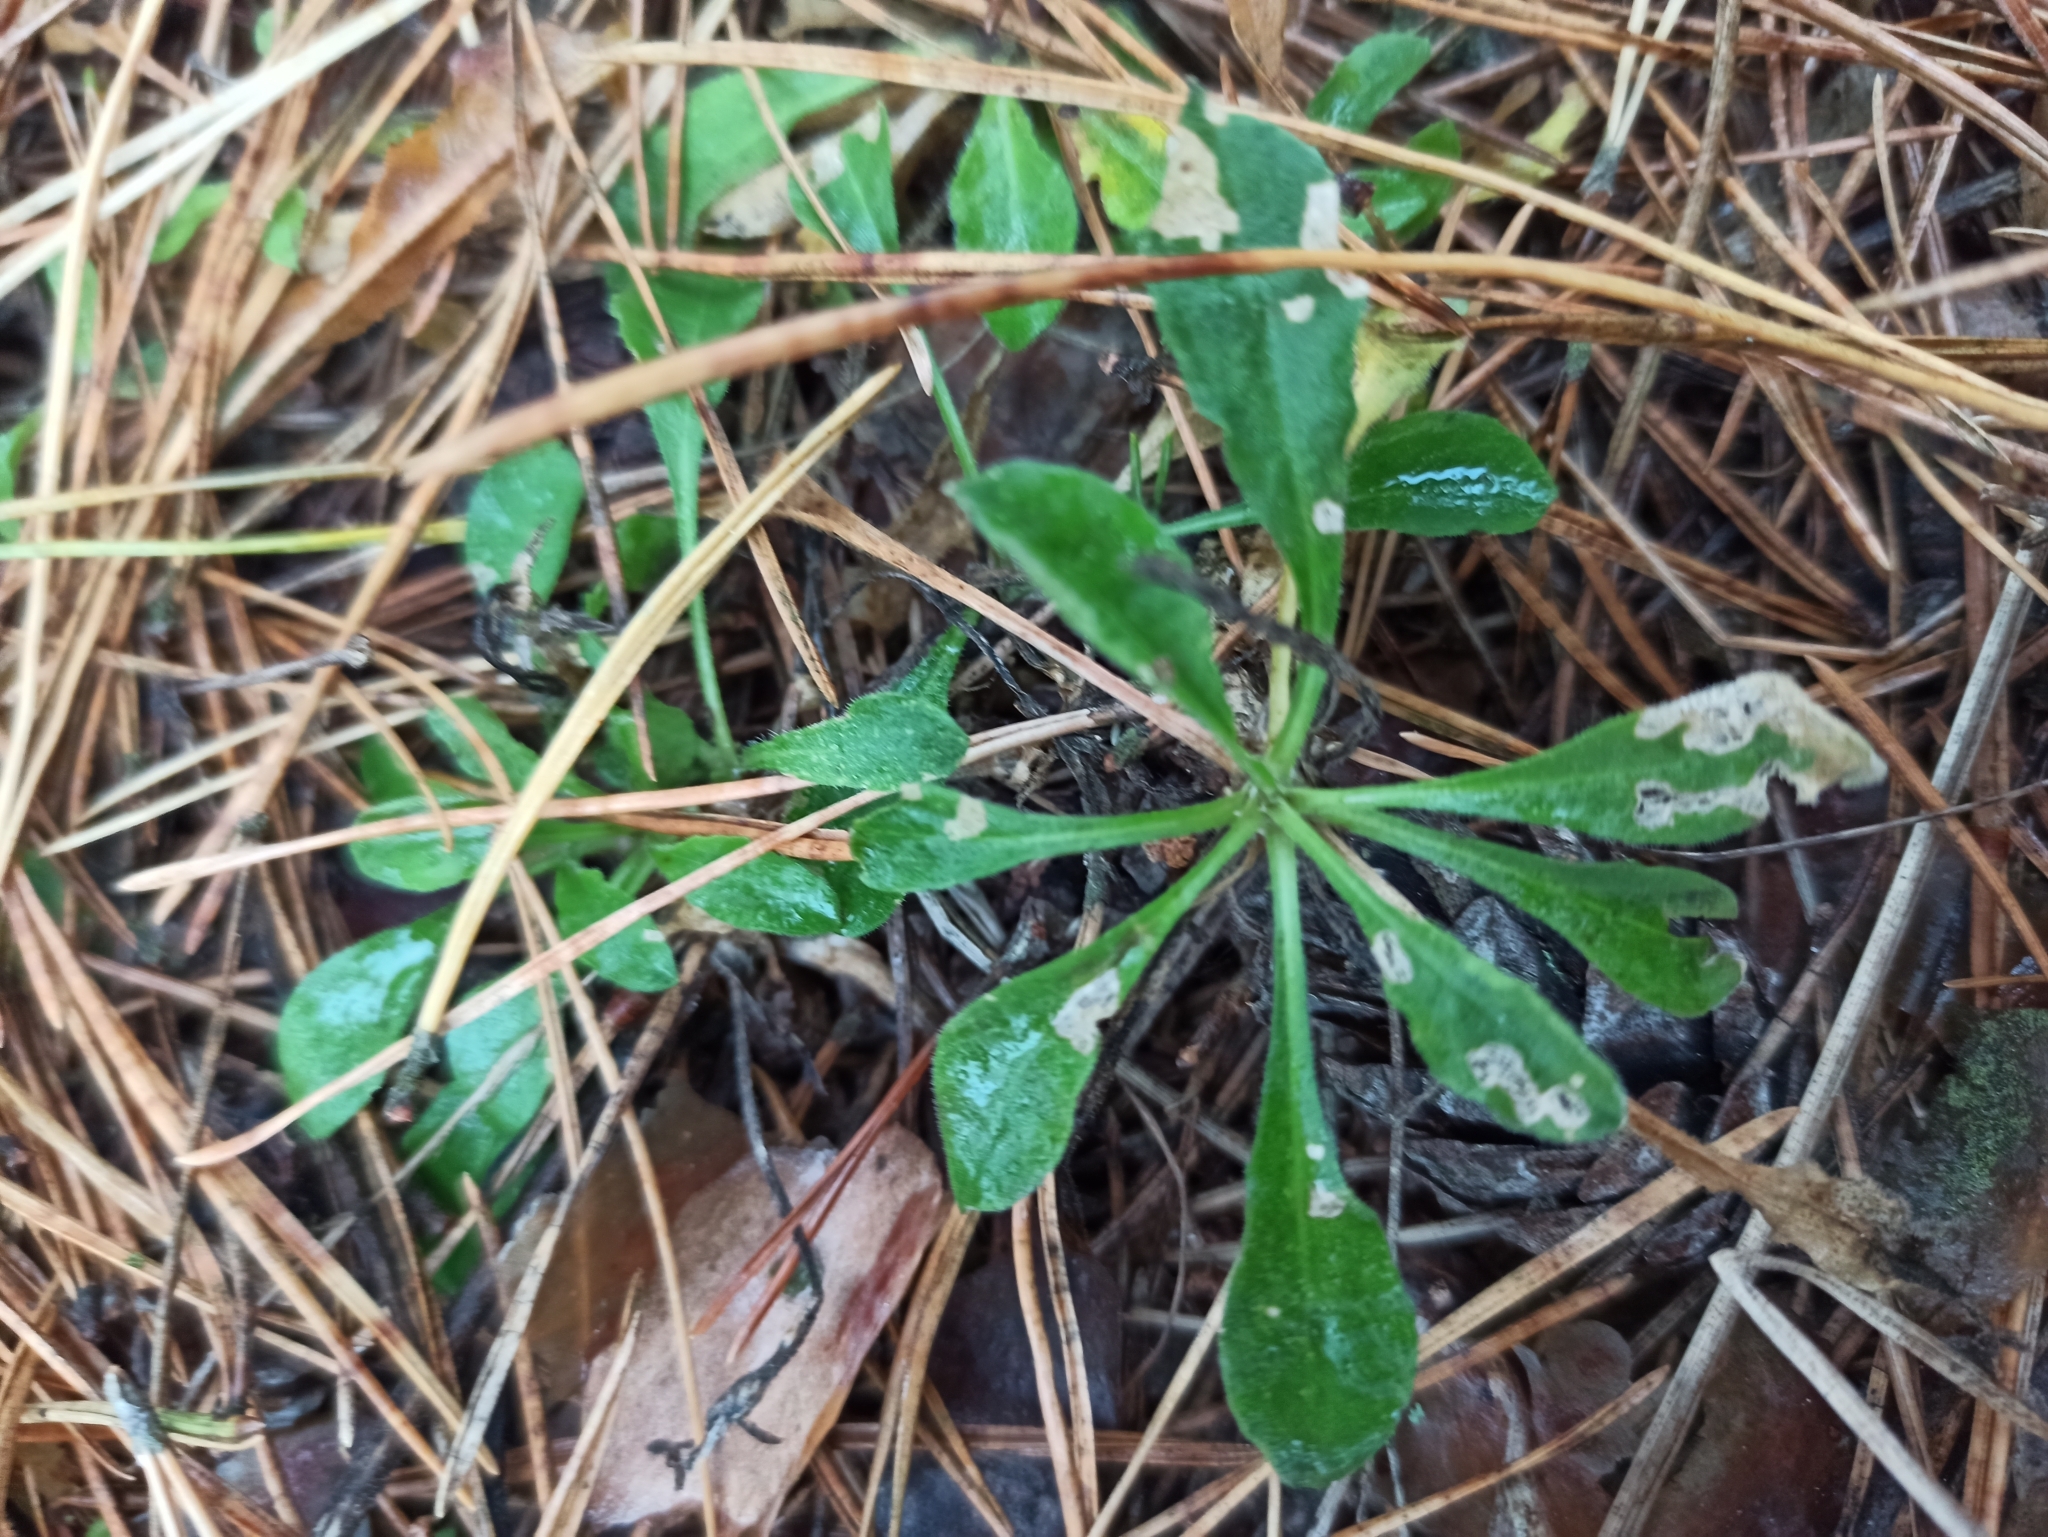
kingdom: Plantae
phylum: Tracheophyta
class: Magnoliopsida
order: Caryophyllales
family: Caryophyllaceae
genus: Silene
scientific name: Silene nutans
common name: Nottingham catchfly
